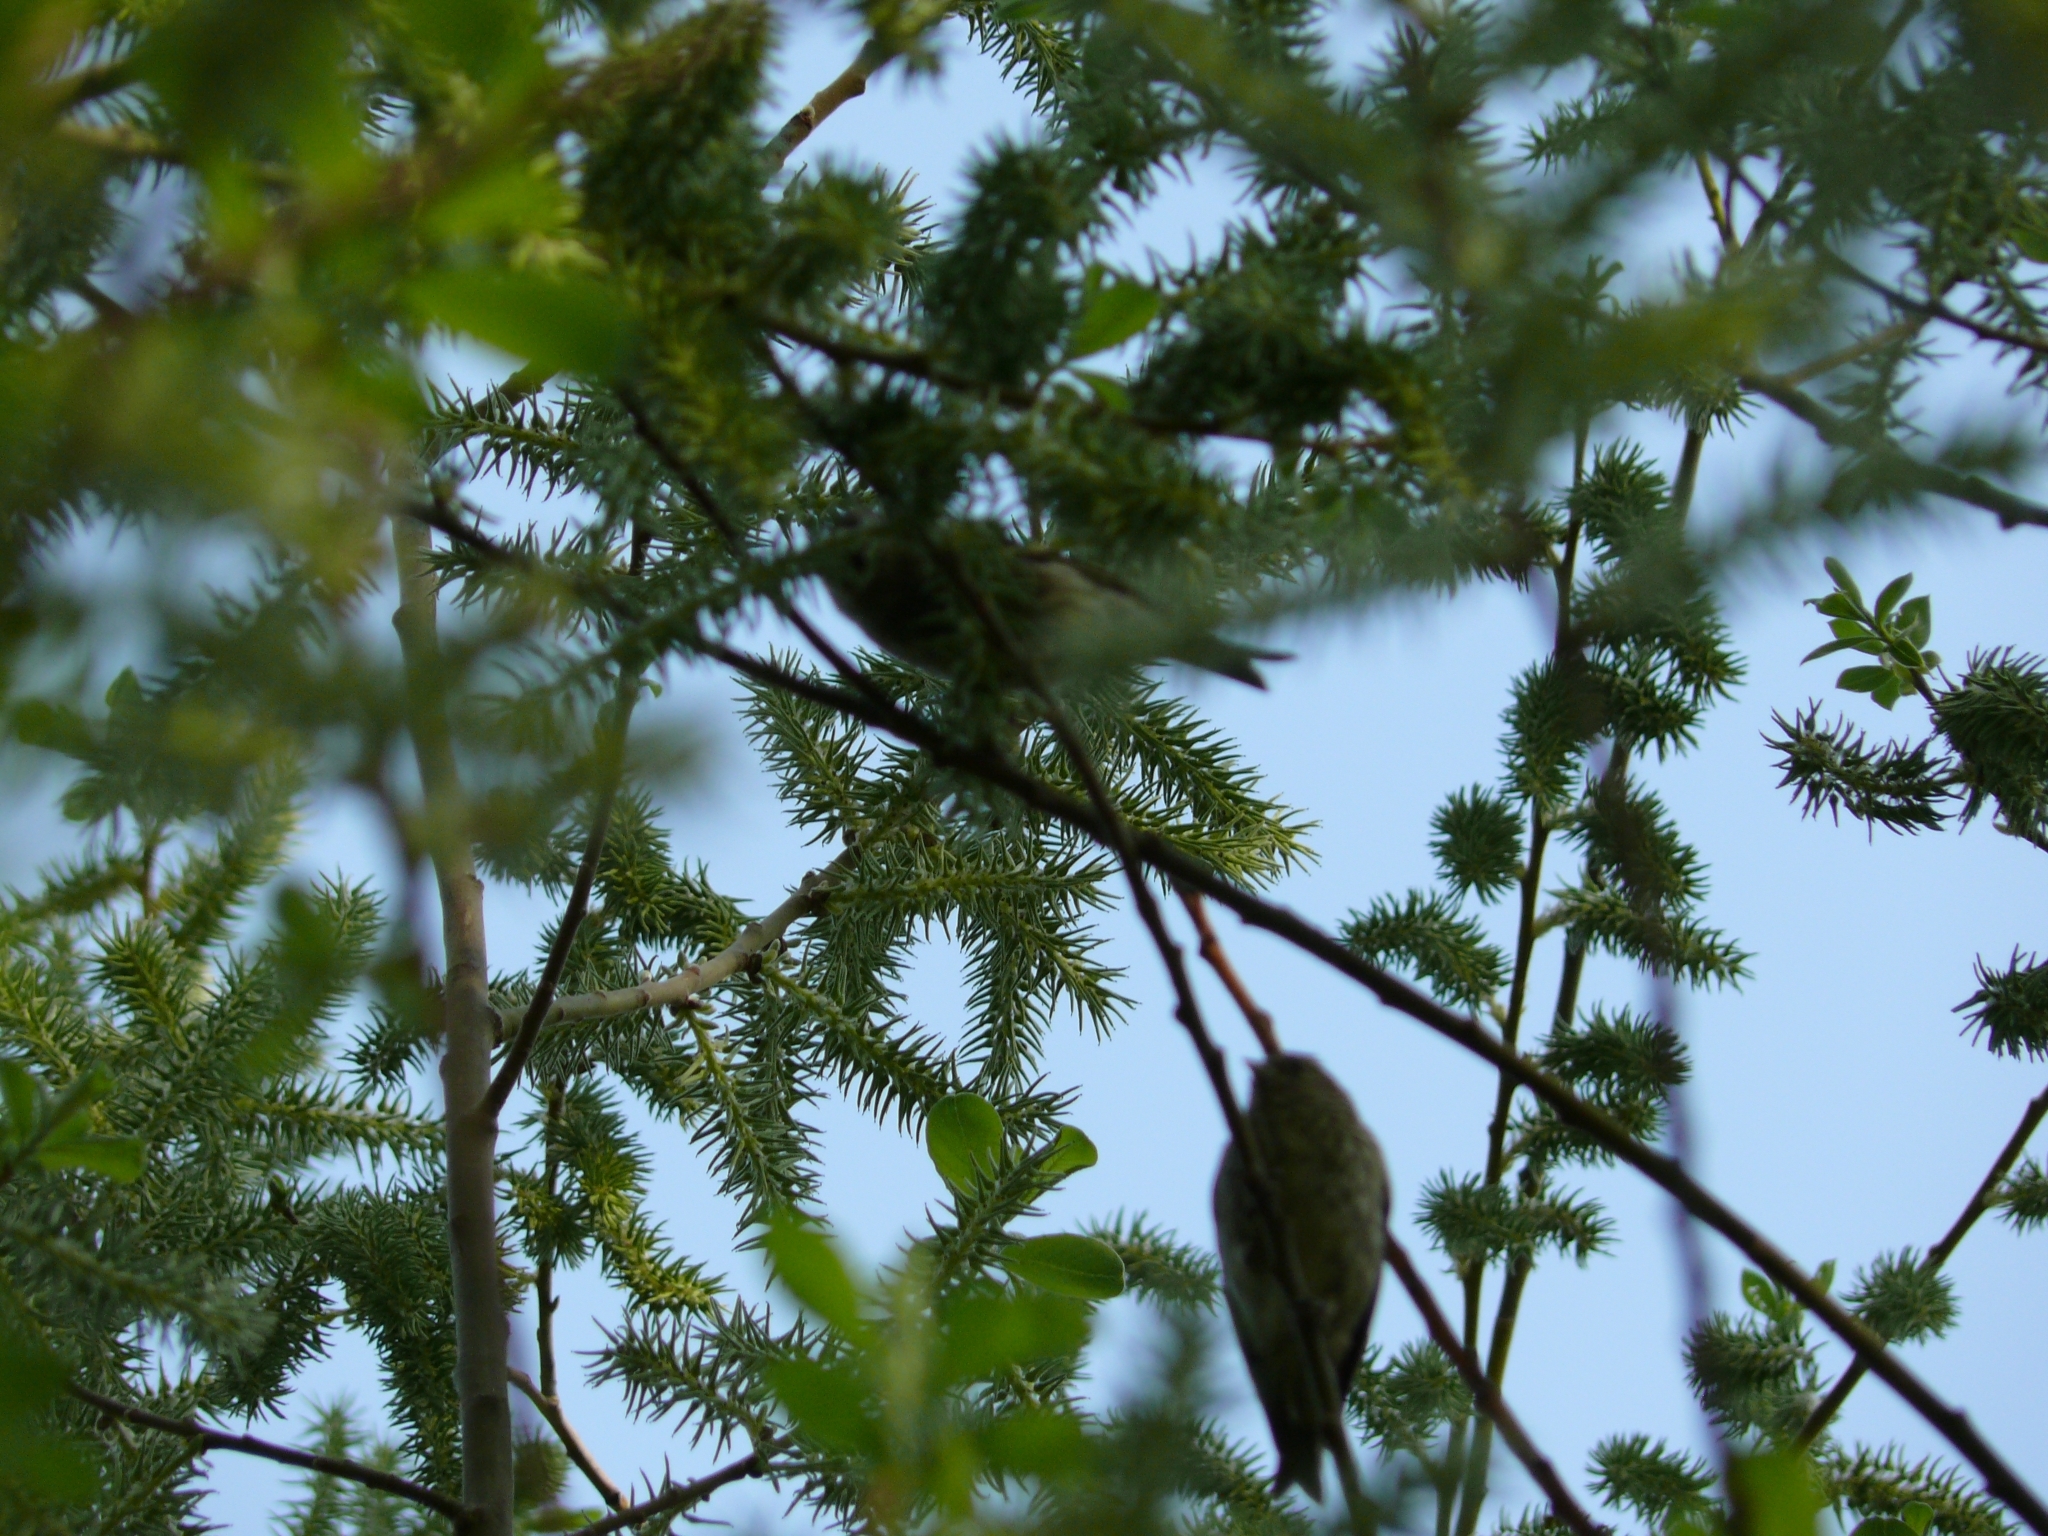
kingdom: Animalia
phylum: Chordata
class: Aves
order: Passeriformes
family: Fringillidae
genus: Spinus
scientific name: Spinus spinus
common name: Eurasian siskin
